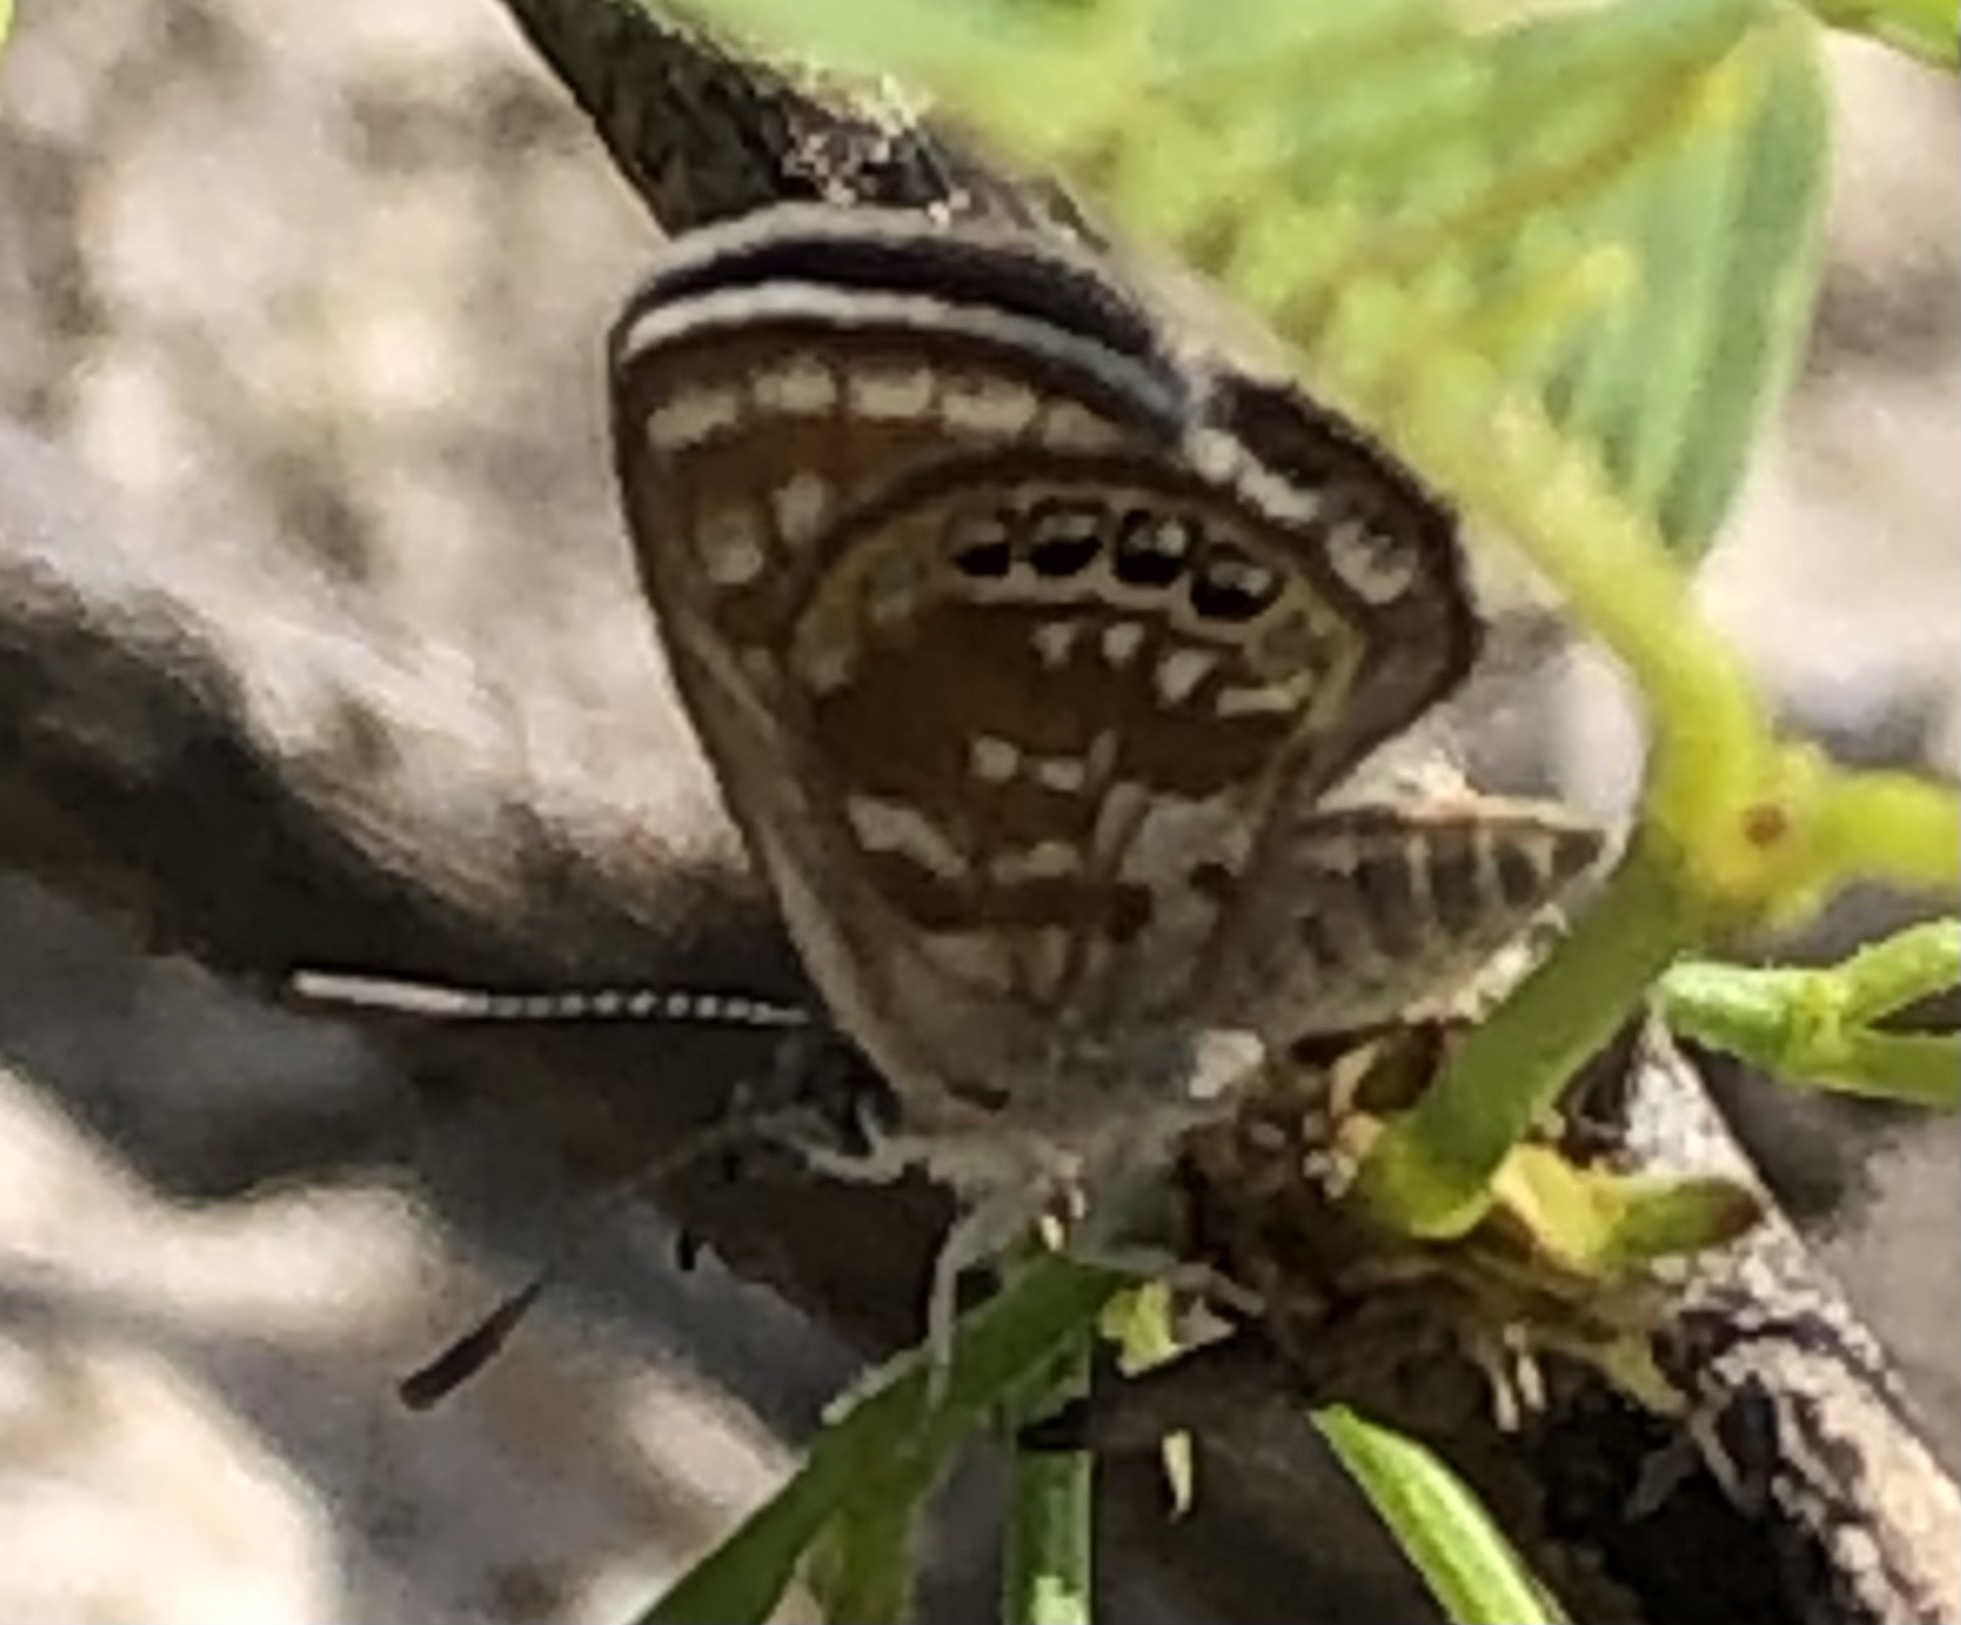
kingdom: Animalia
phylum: Arthropoda
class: Insecta
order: Lepidoptera
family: Lycaenidae
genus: Brephidium
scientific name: Brephidium exilis
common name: Pygmy blue
